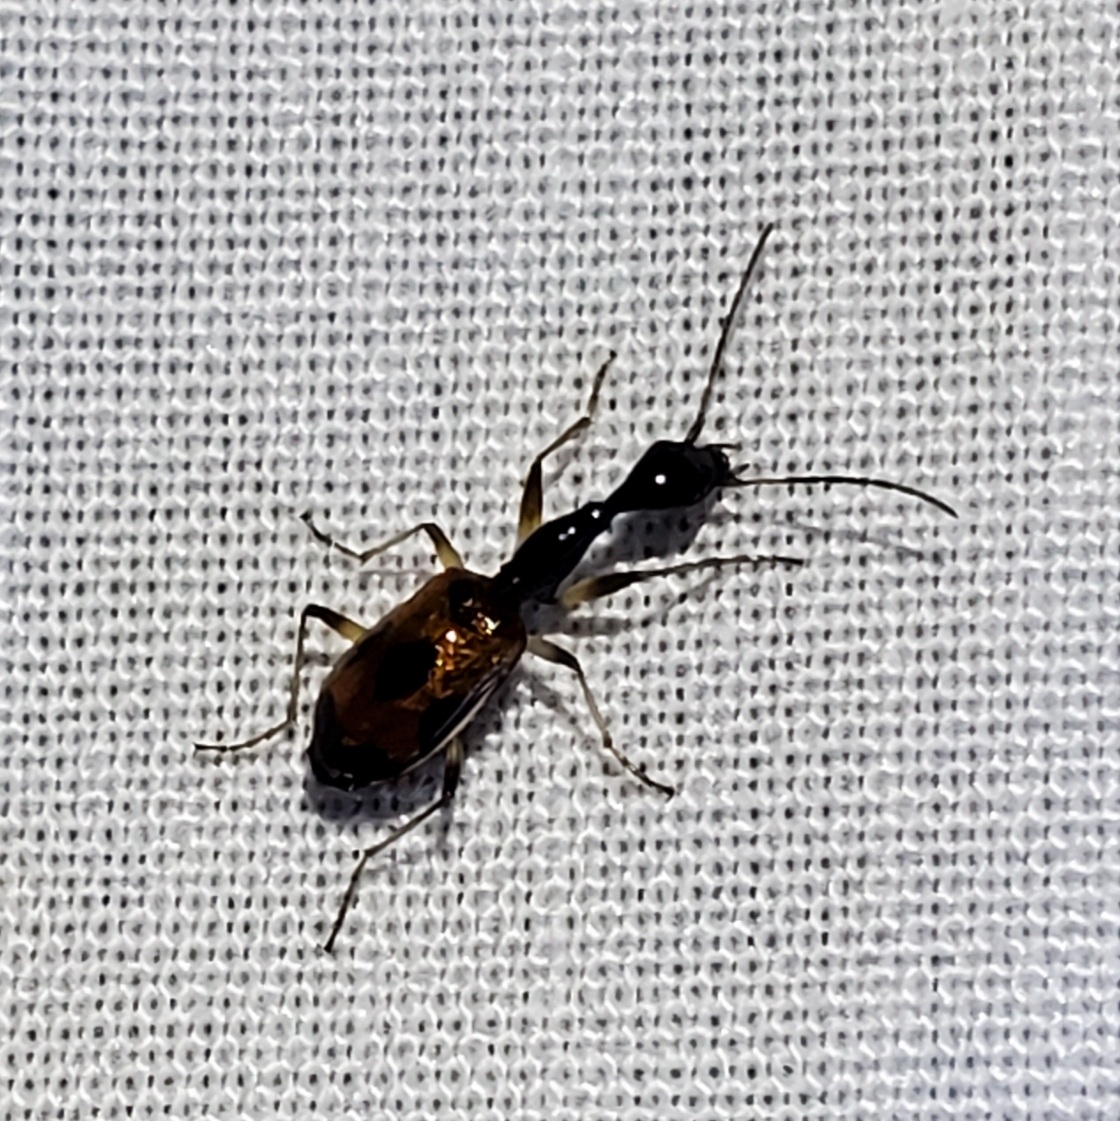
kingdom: Animalia
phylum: Arthropoda
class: Insecta
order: Coleoptera
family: Carabidae
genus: Colliuris
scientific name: Colliuris pensylvanica
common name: Long-necked ground beetle
